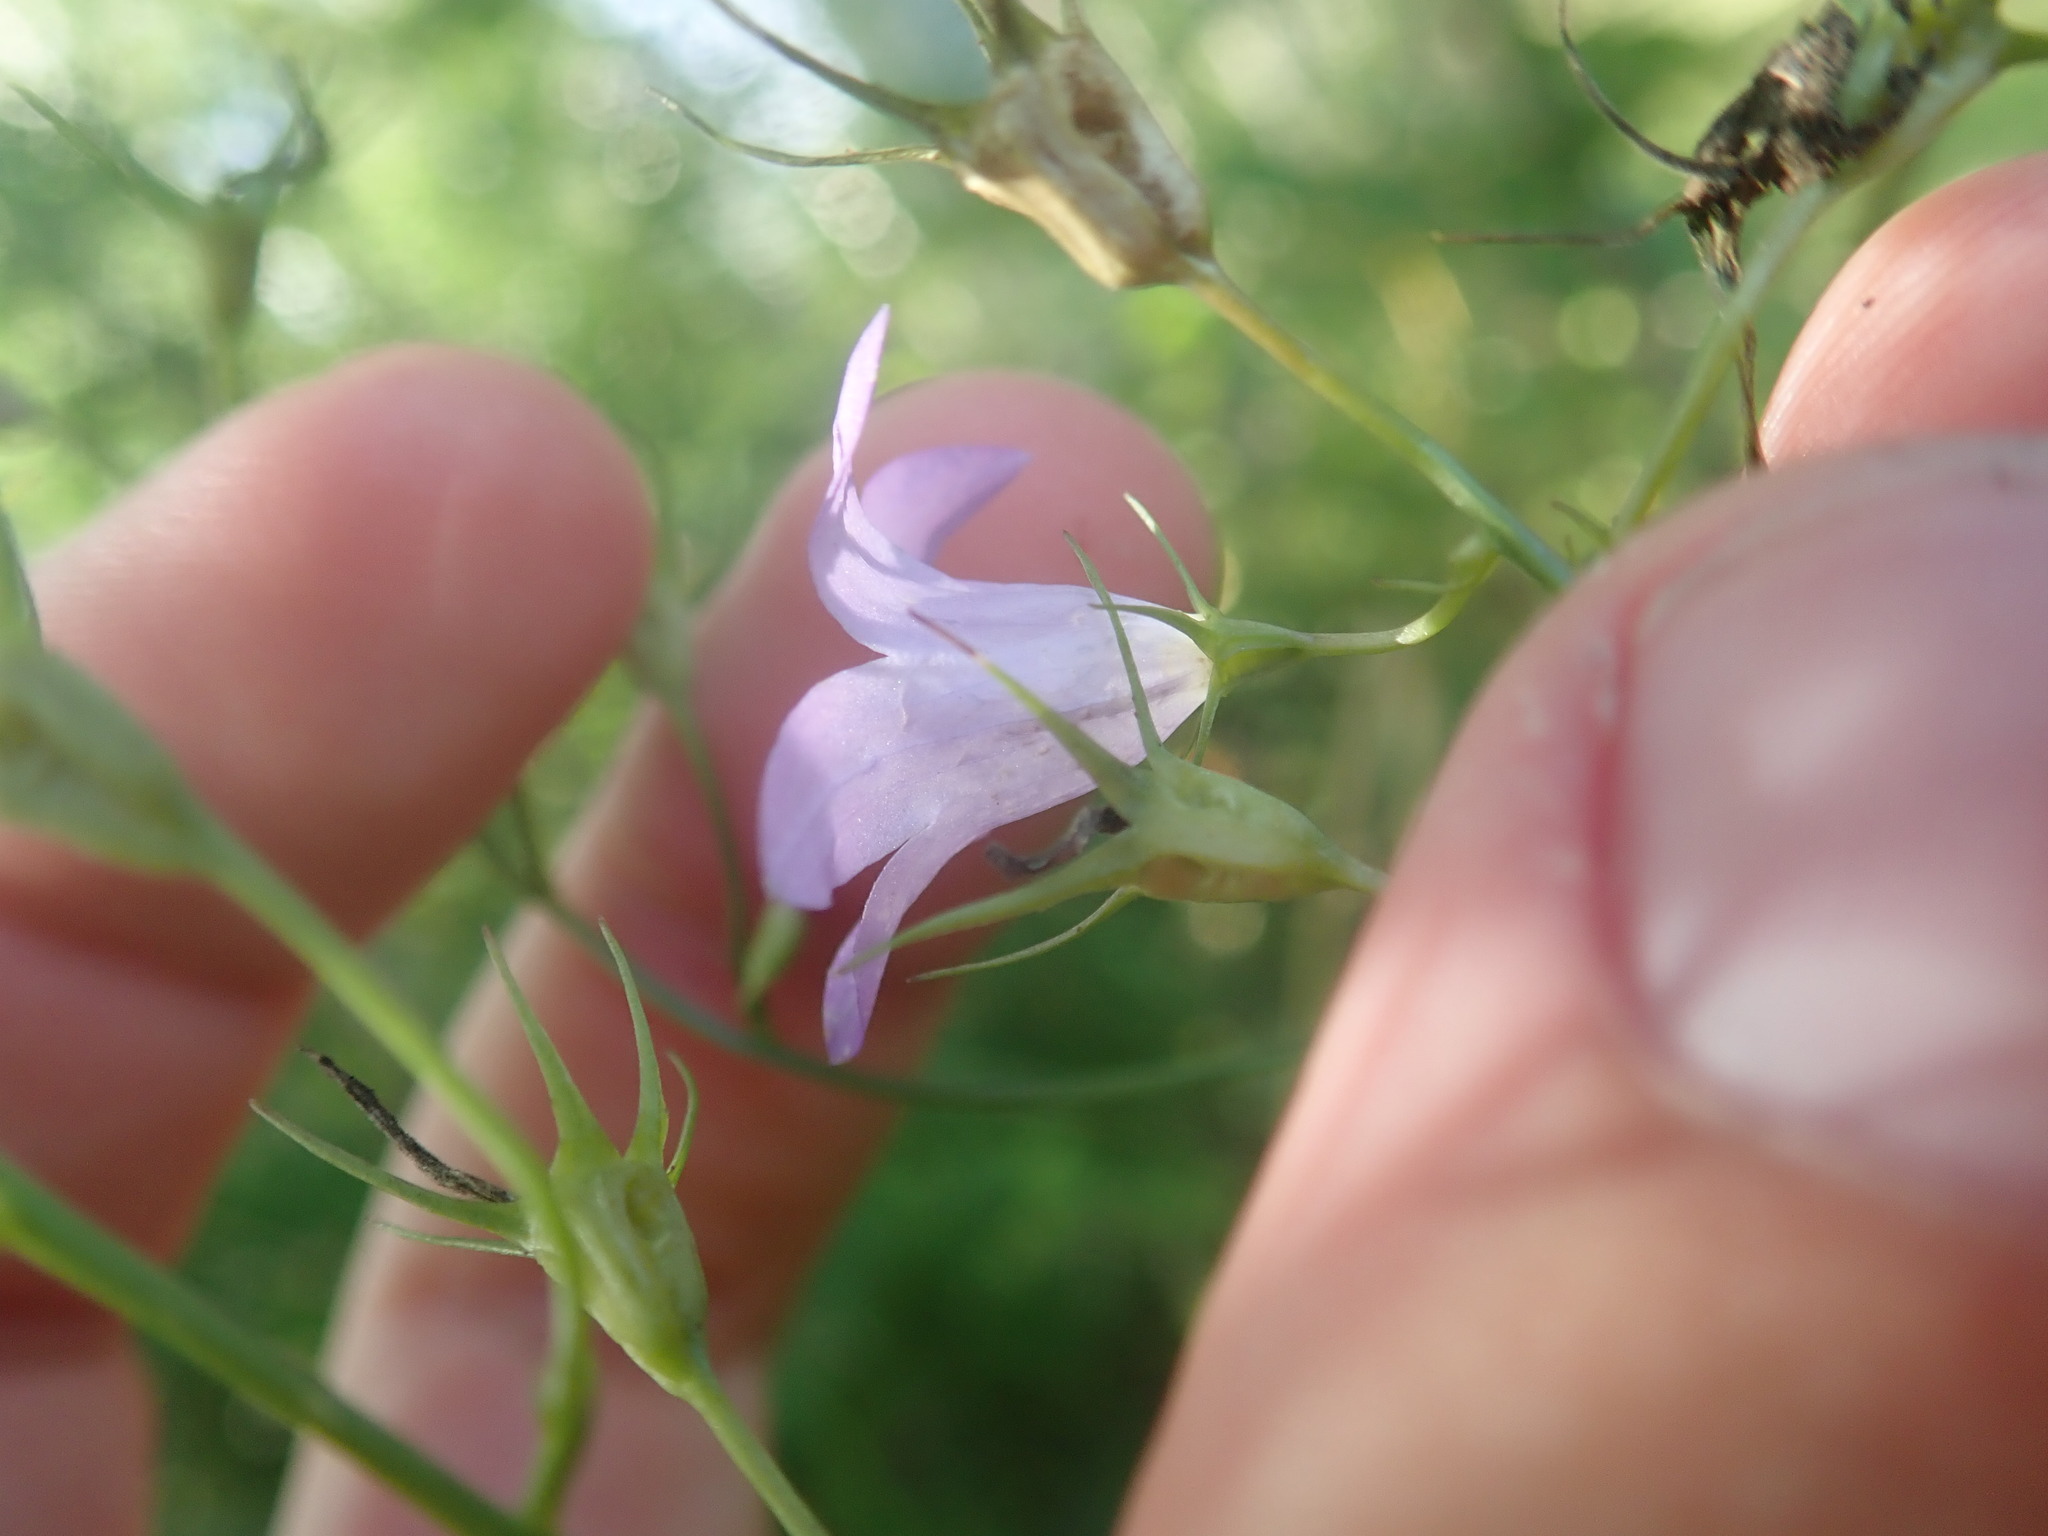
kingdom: Plantae
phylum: Tracheophyta
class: Magnoliopsida
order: Asterales
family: Campanulaceae
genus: Campanula
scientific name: Campanula rapunculus
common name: Rampion bellflower
